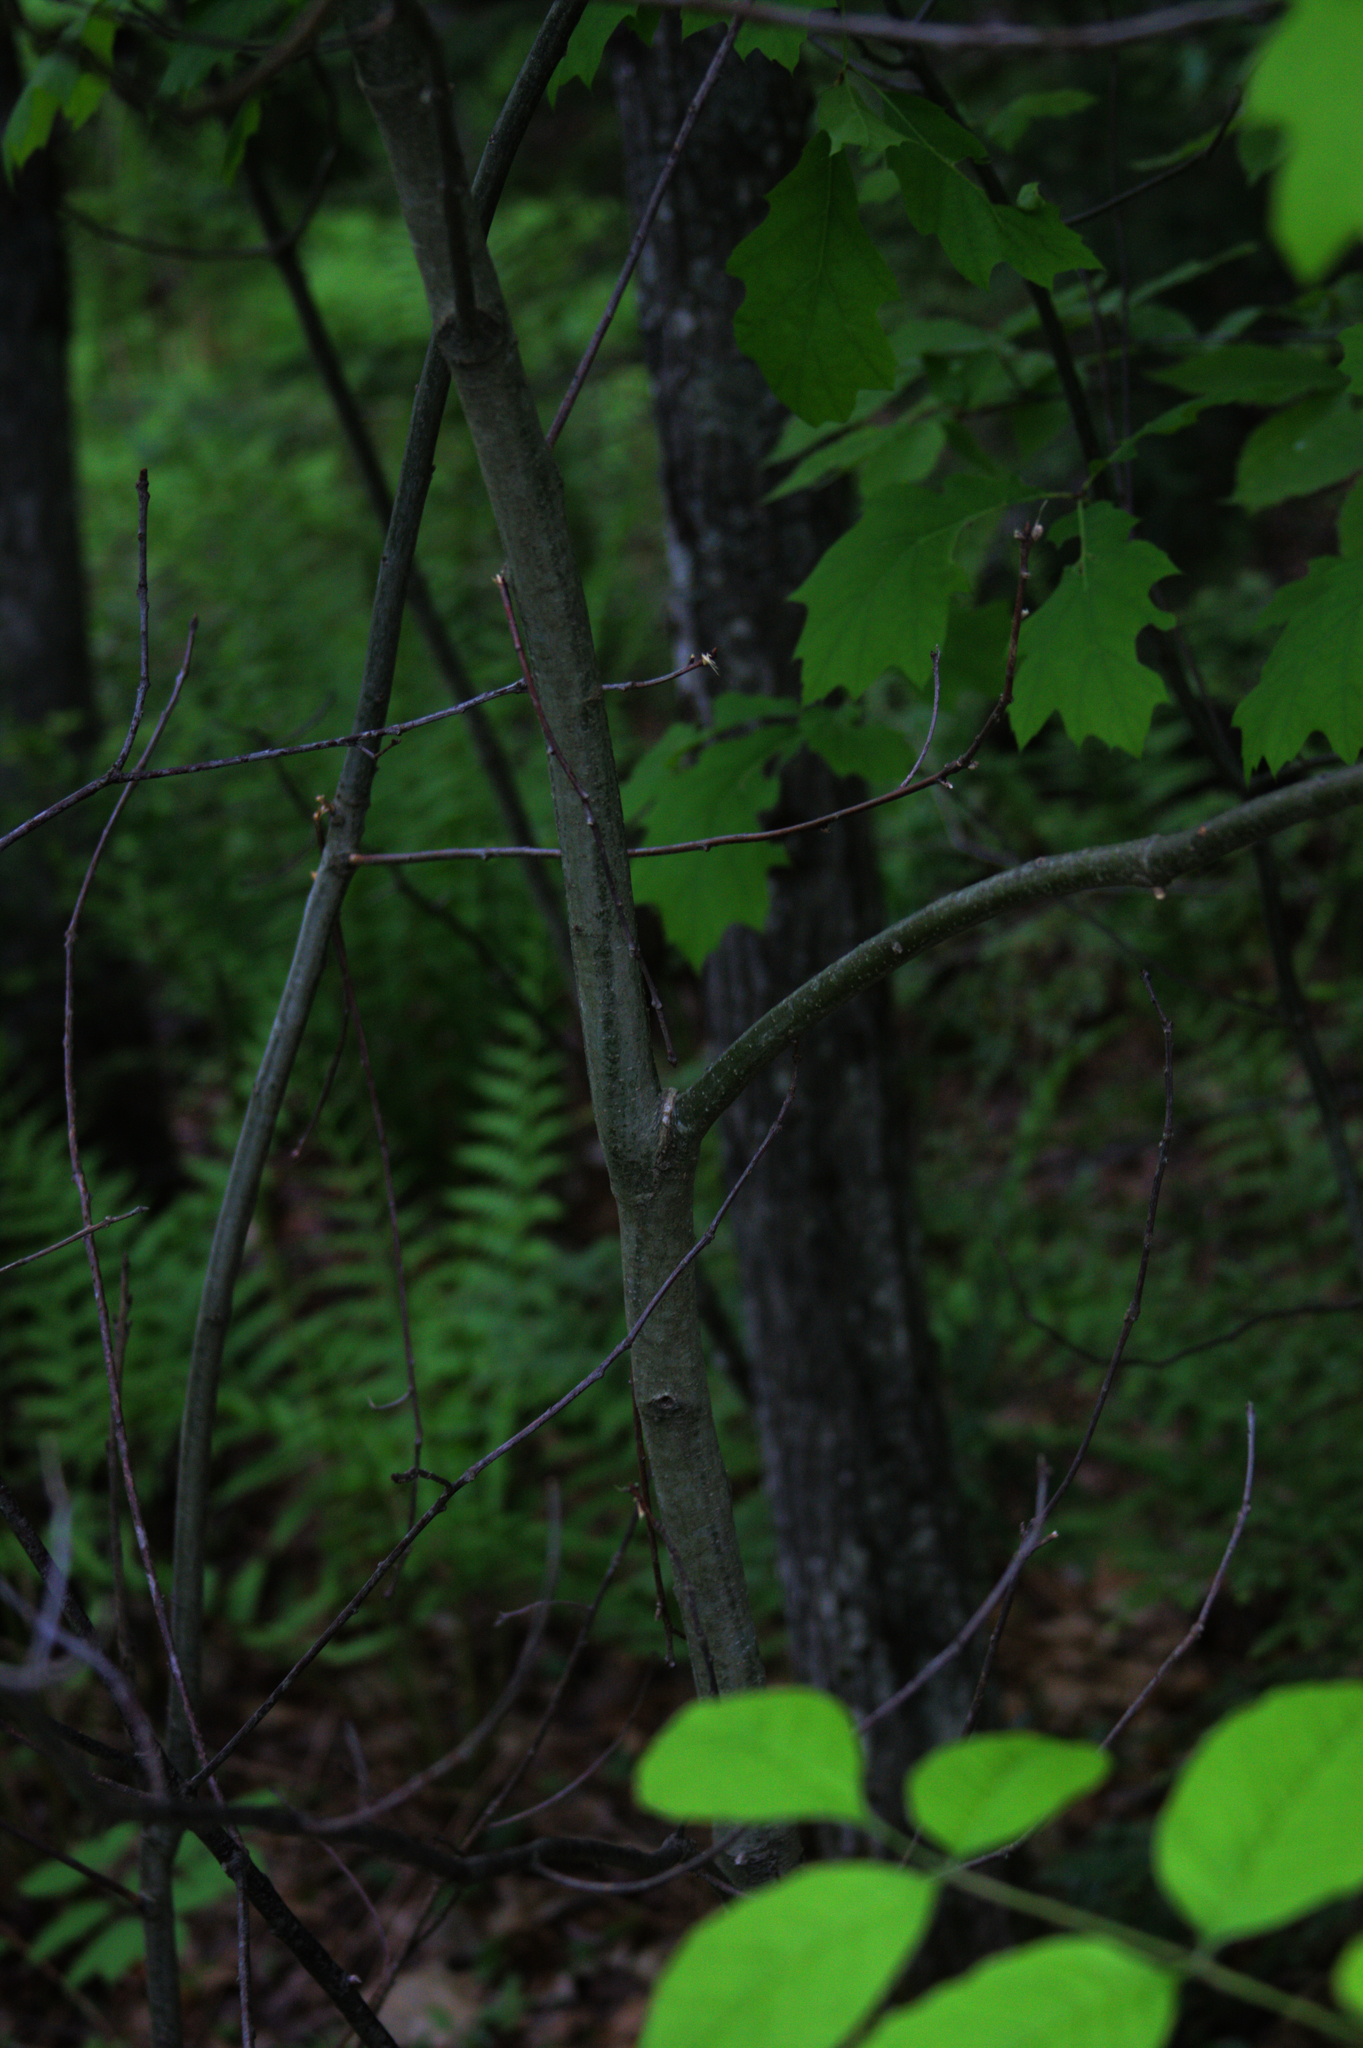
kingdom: Plantae
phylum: Tracheophyta
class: Magnoliopsida
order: Fagales
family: Fagaceae
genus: Quercus
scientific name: Quercus rubra
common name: Red oak
